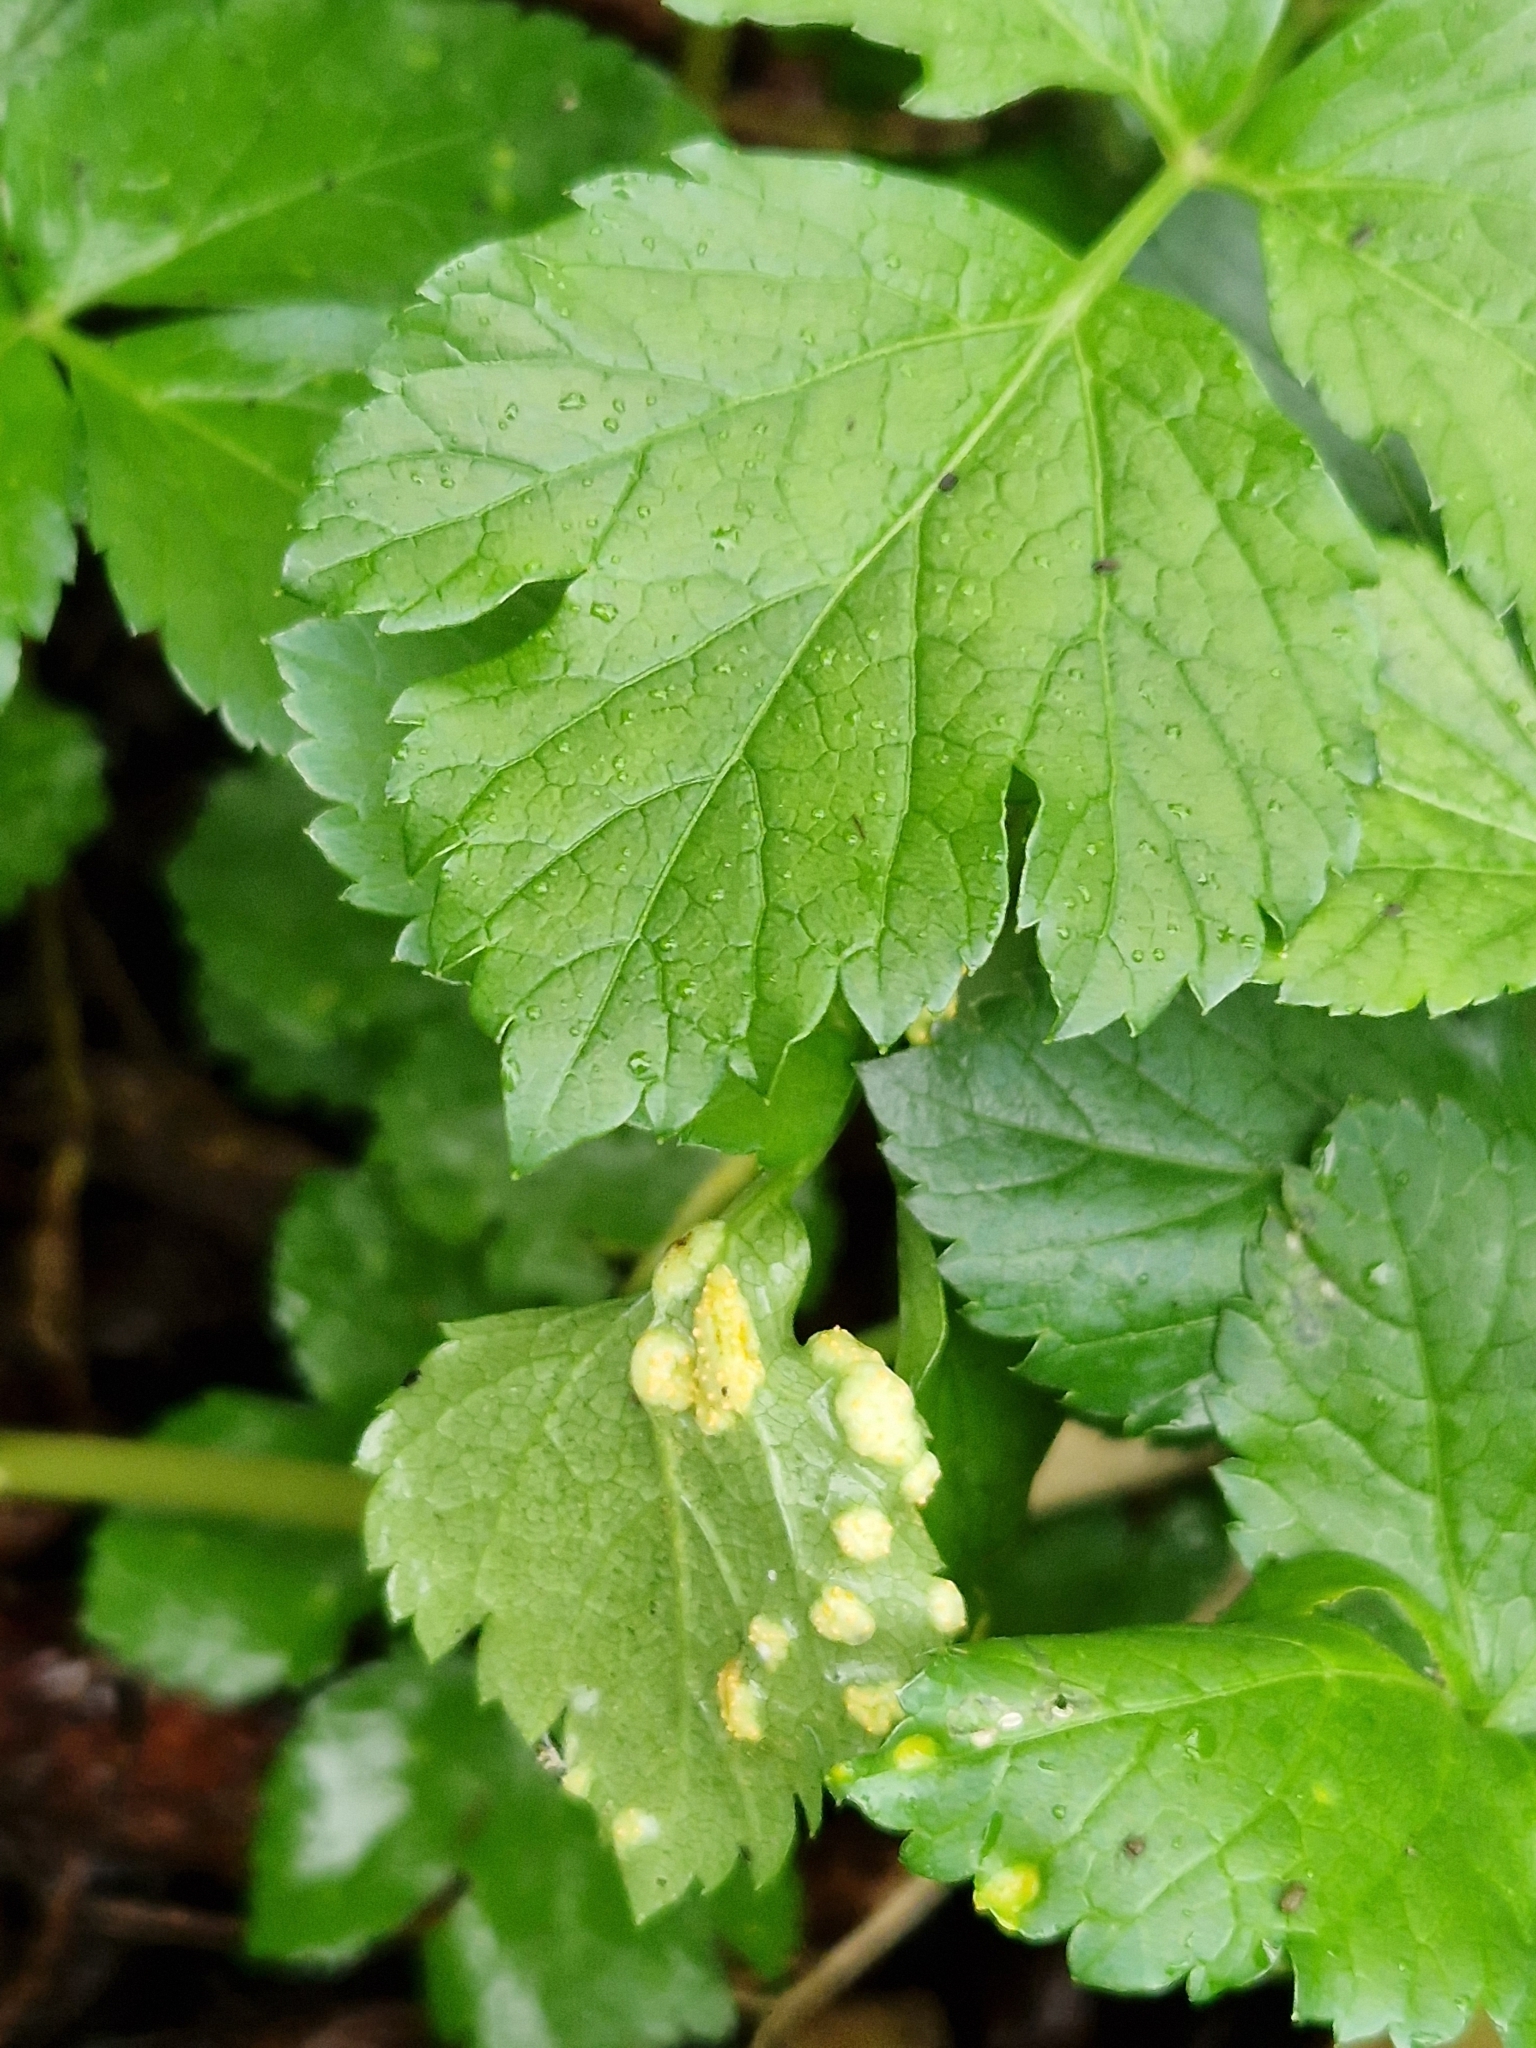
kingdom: Fungi
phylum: Basidiomycota
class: Pucciniomycetes
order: Pucciniales
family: Pucciniaceae
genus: Puccinia
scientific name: Puccinia smyrnii
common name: Alexanders rust
